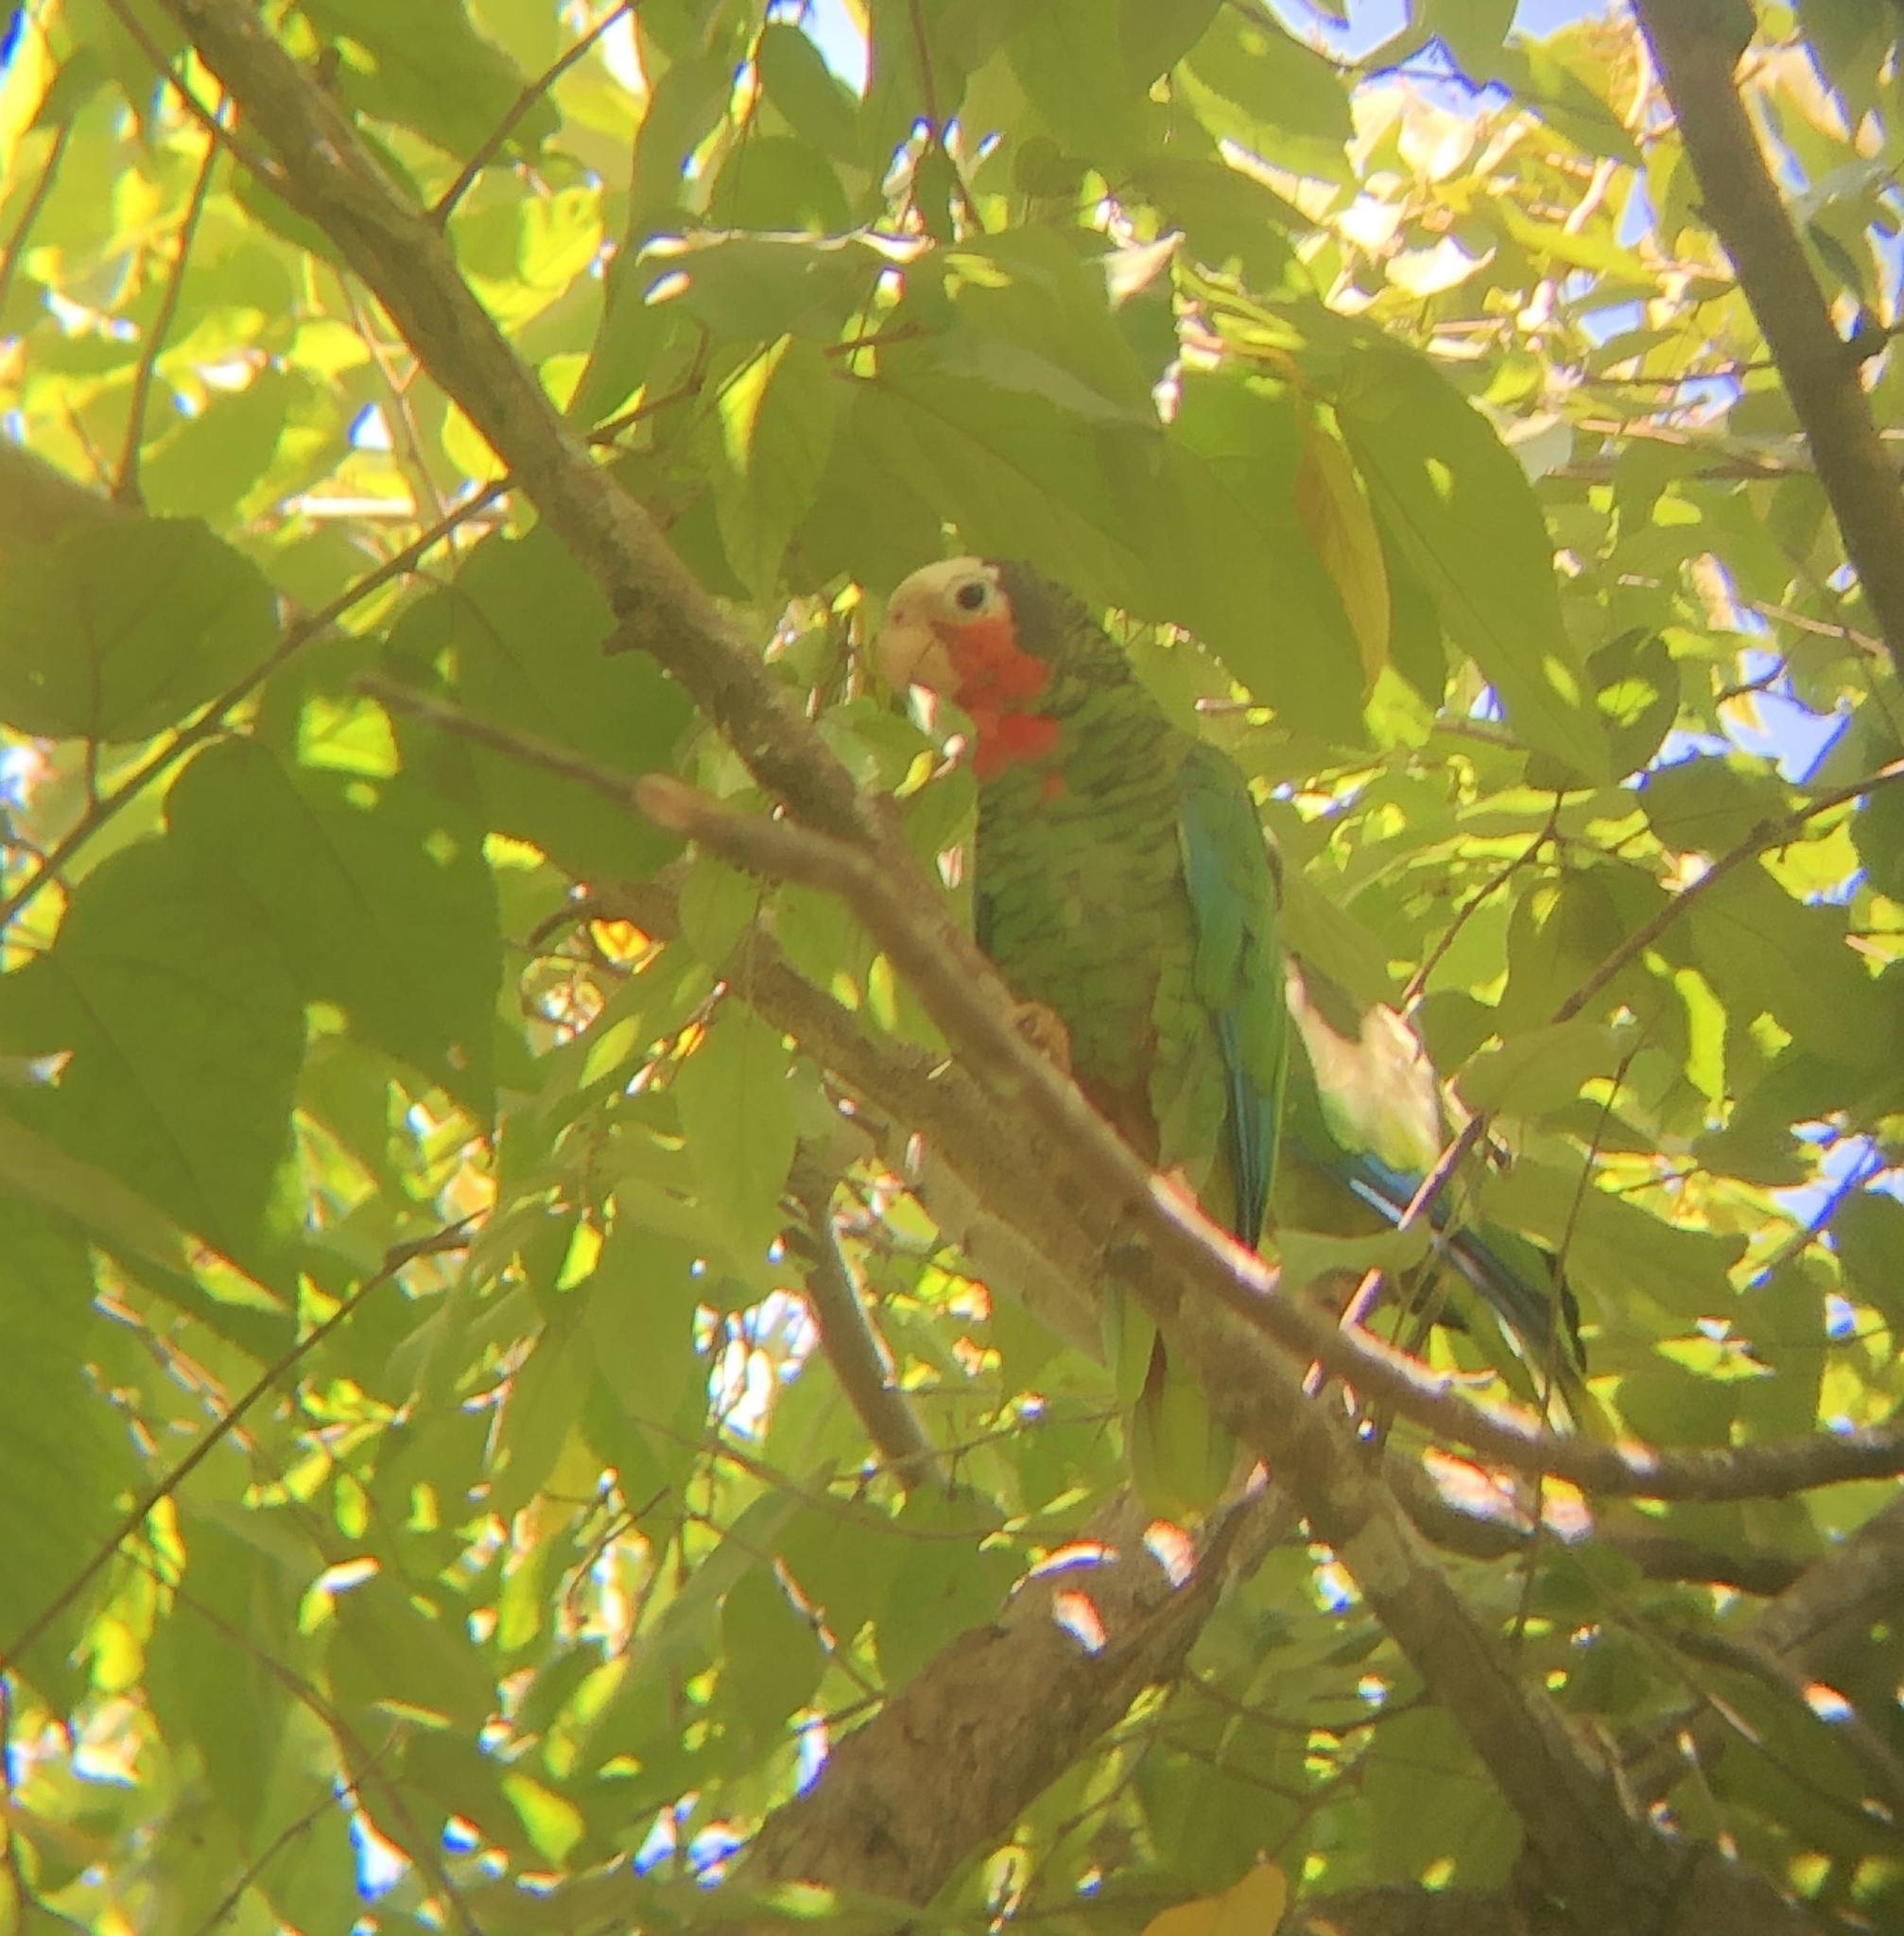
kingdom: Animalia
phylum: Chordata
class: Aves
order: Psittaciformes
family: Psittacidae
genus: Amazona
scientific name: Amazona leucocephala
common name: Cuban amazon
